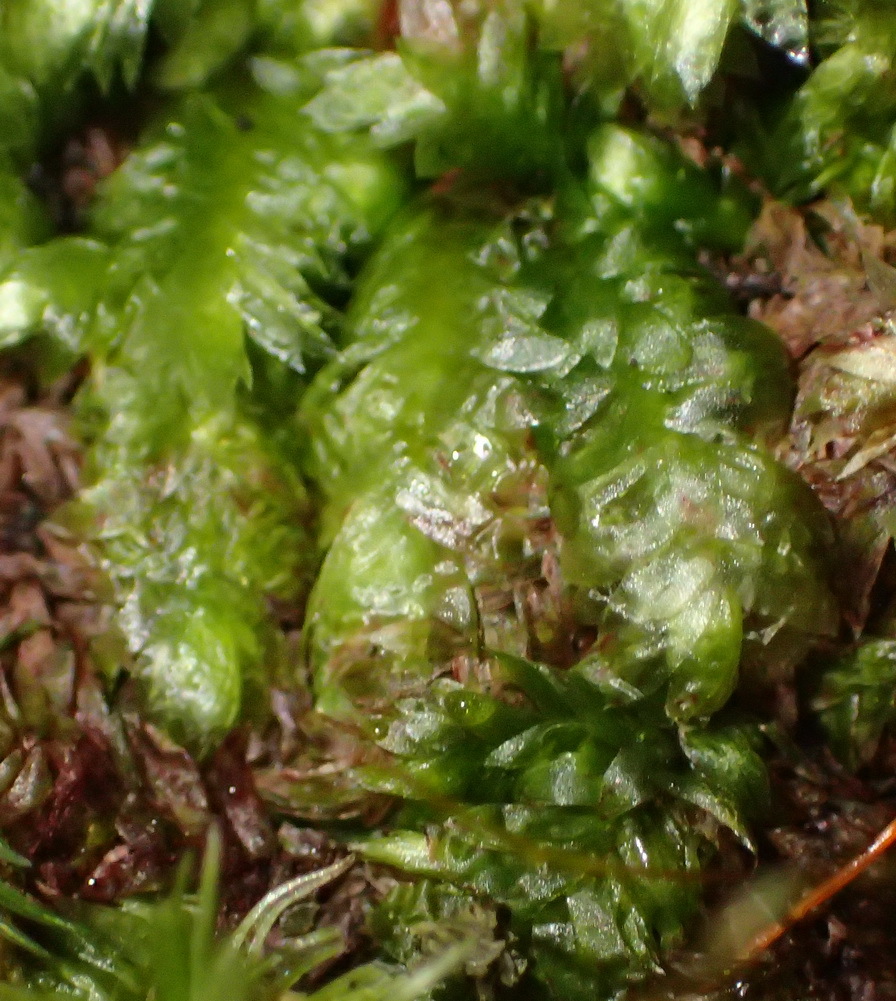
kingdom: Plantae
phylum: Bryophyta
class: Bryopsida
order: Hookeriales
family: Pilotrichaceae
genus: Thamniopsis
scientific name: Thamniopsis utacamundiana
